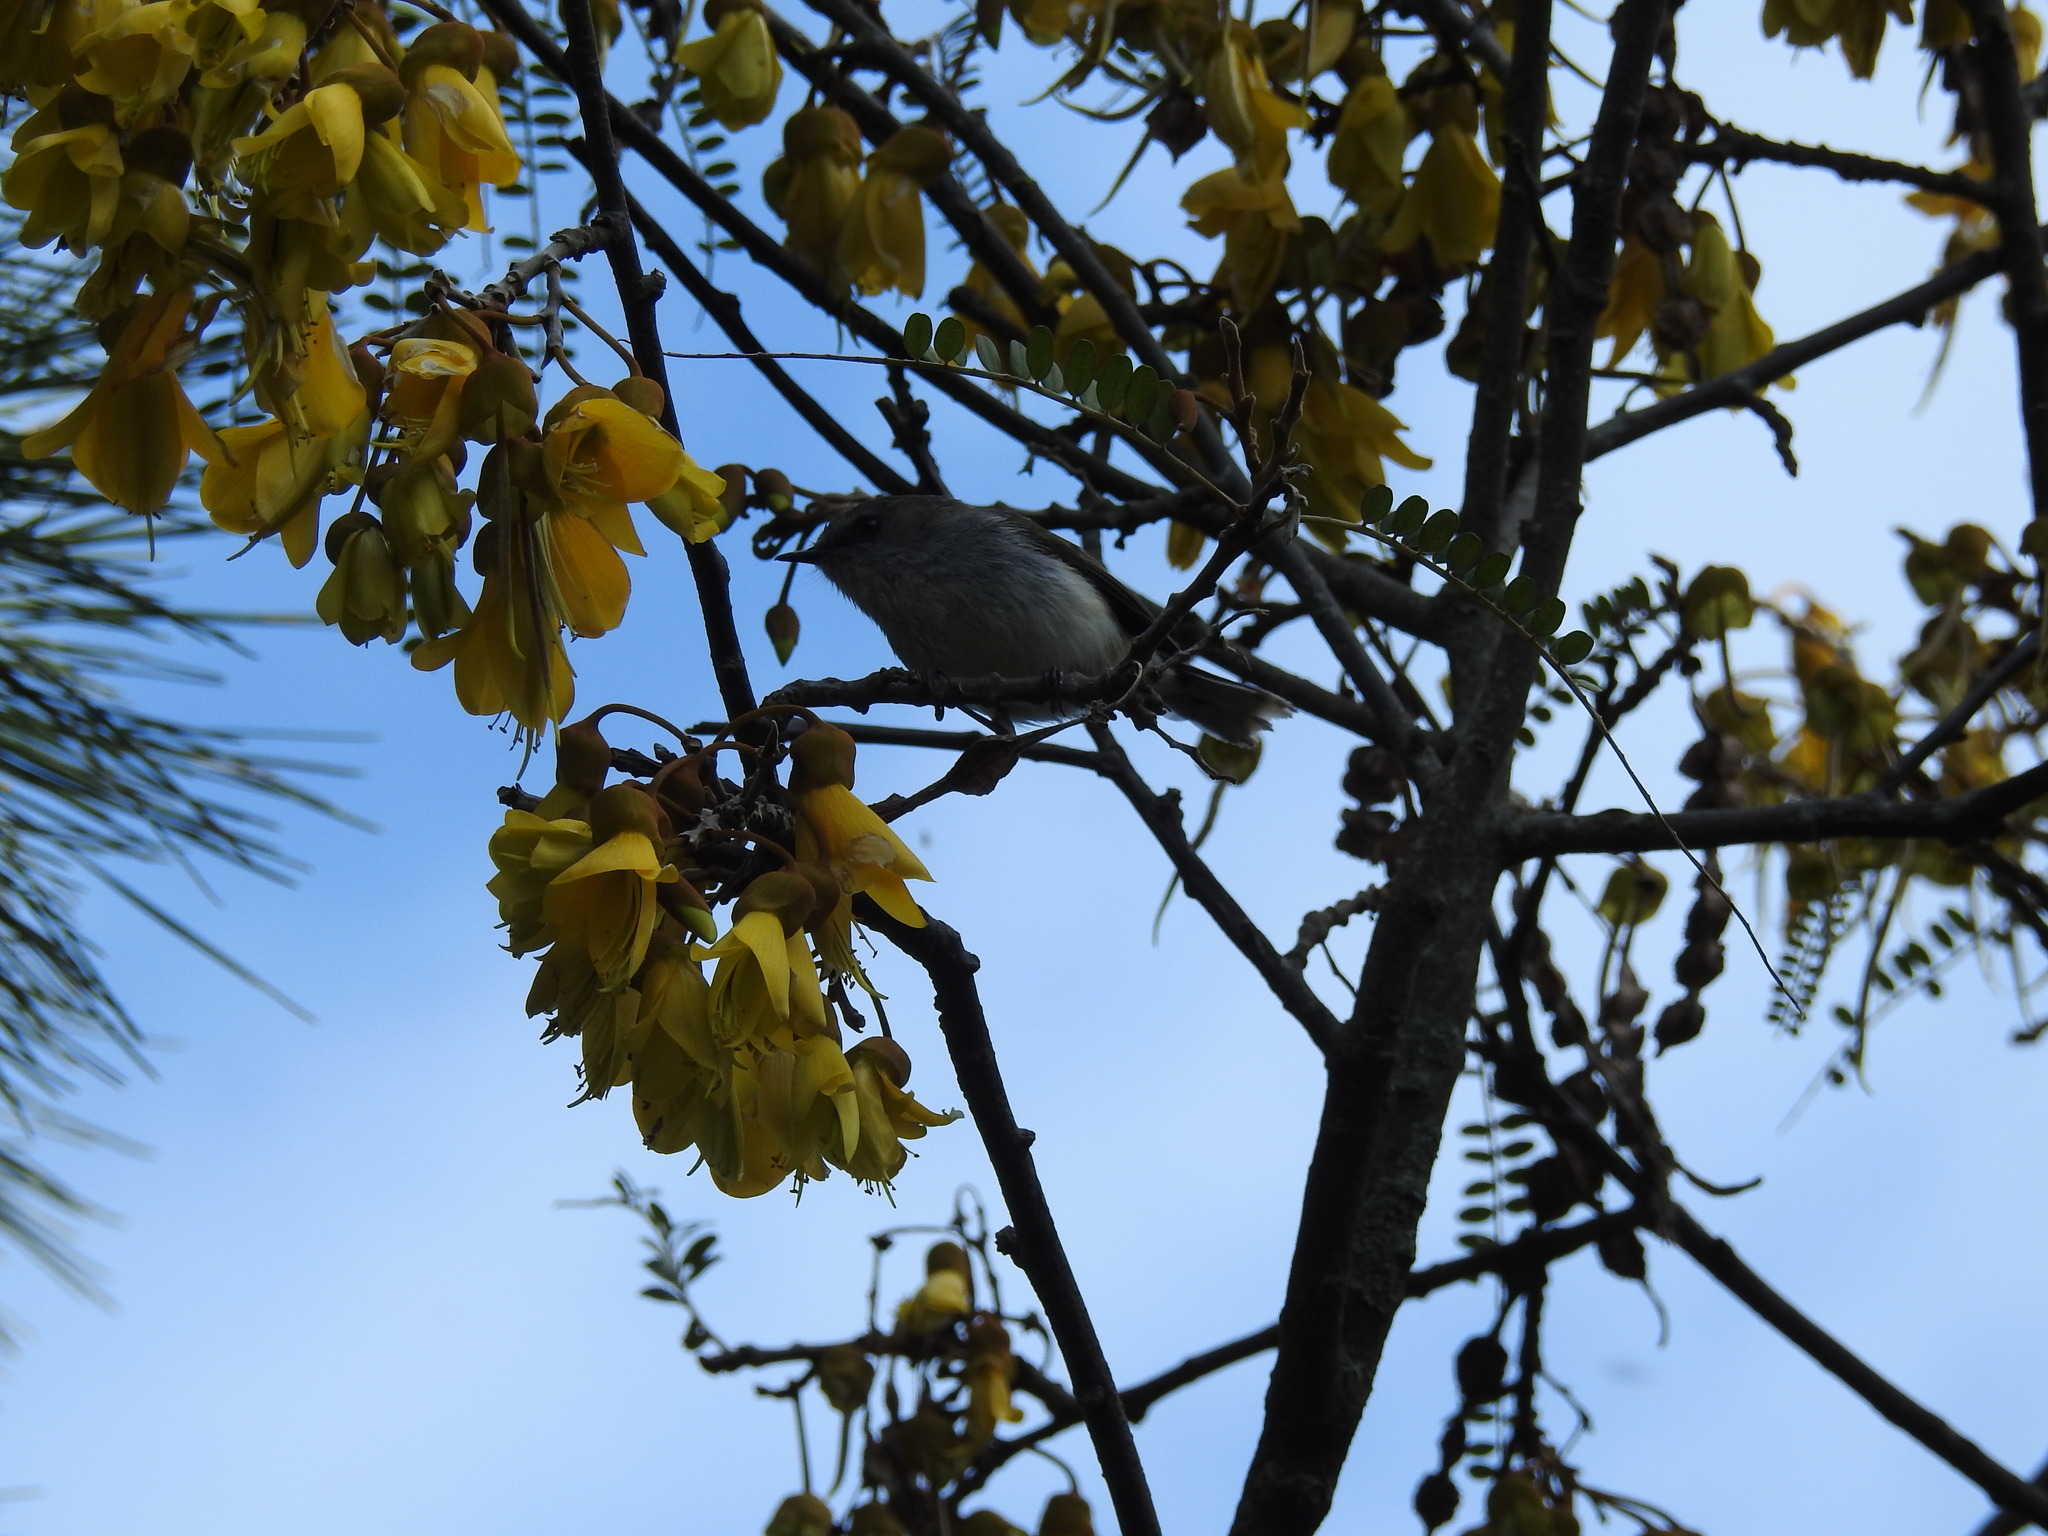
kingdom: Animalia
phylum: Chordata
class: Aves
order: Passeriformes
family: Acanthizidae
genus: Gerygone
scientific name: Gerygone igata
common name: Grey gerygone
